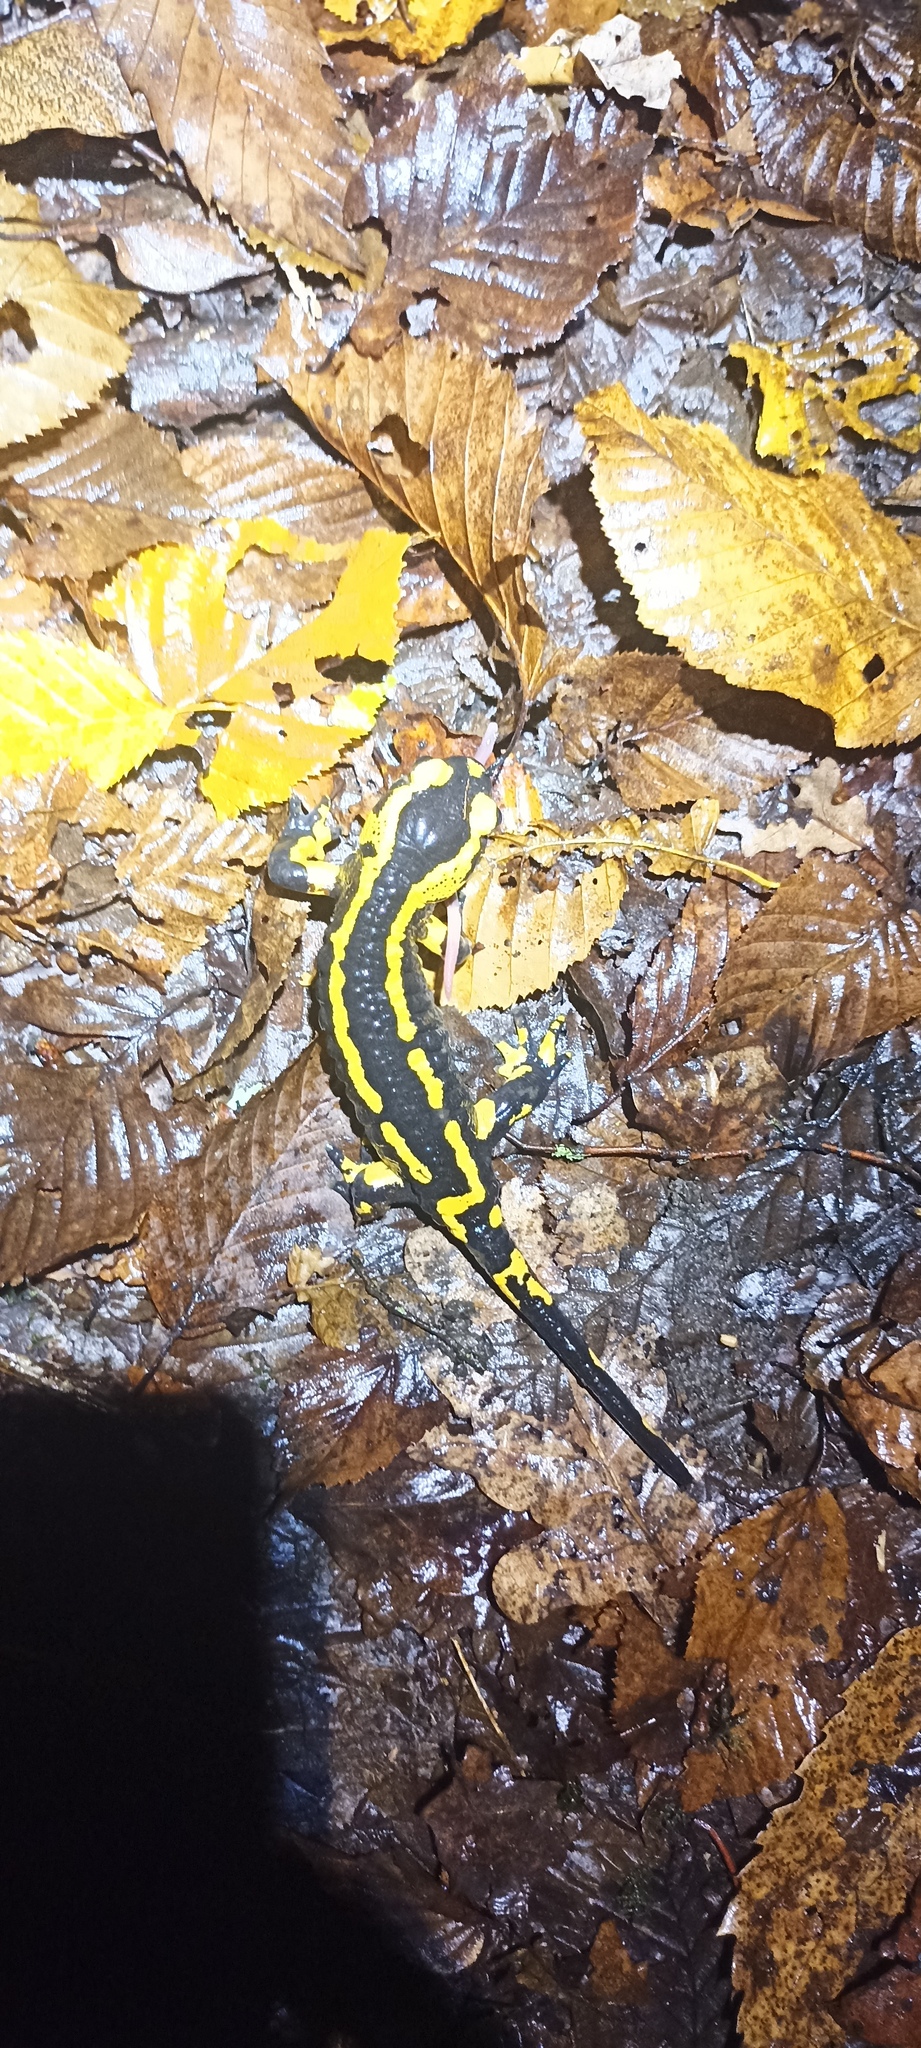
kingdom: Animalia
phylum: Chordata
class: Amphibia
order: Caudata
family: Salamandridae
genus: Salamandra
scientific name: Salamandra salamandra
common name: Fire salamander
